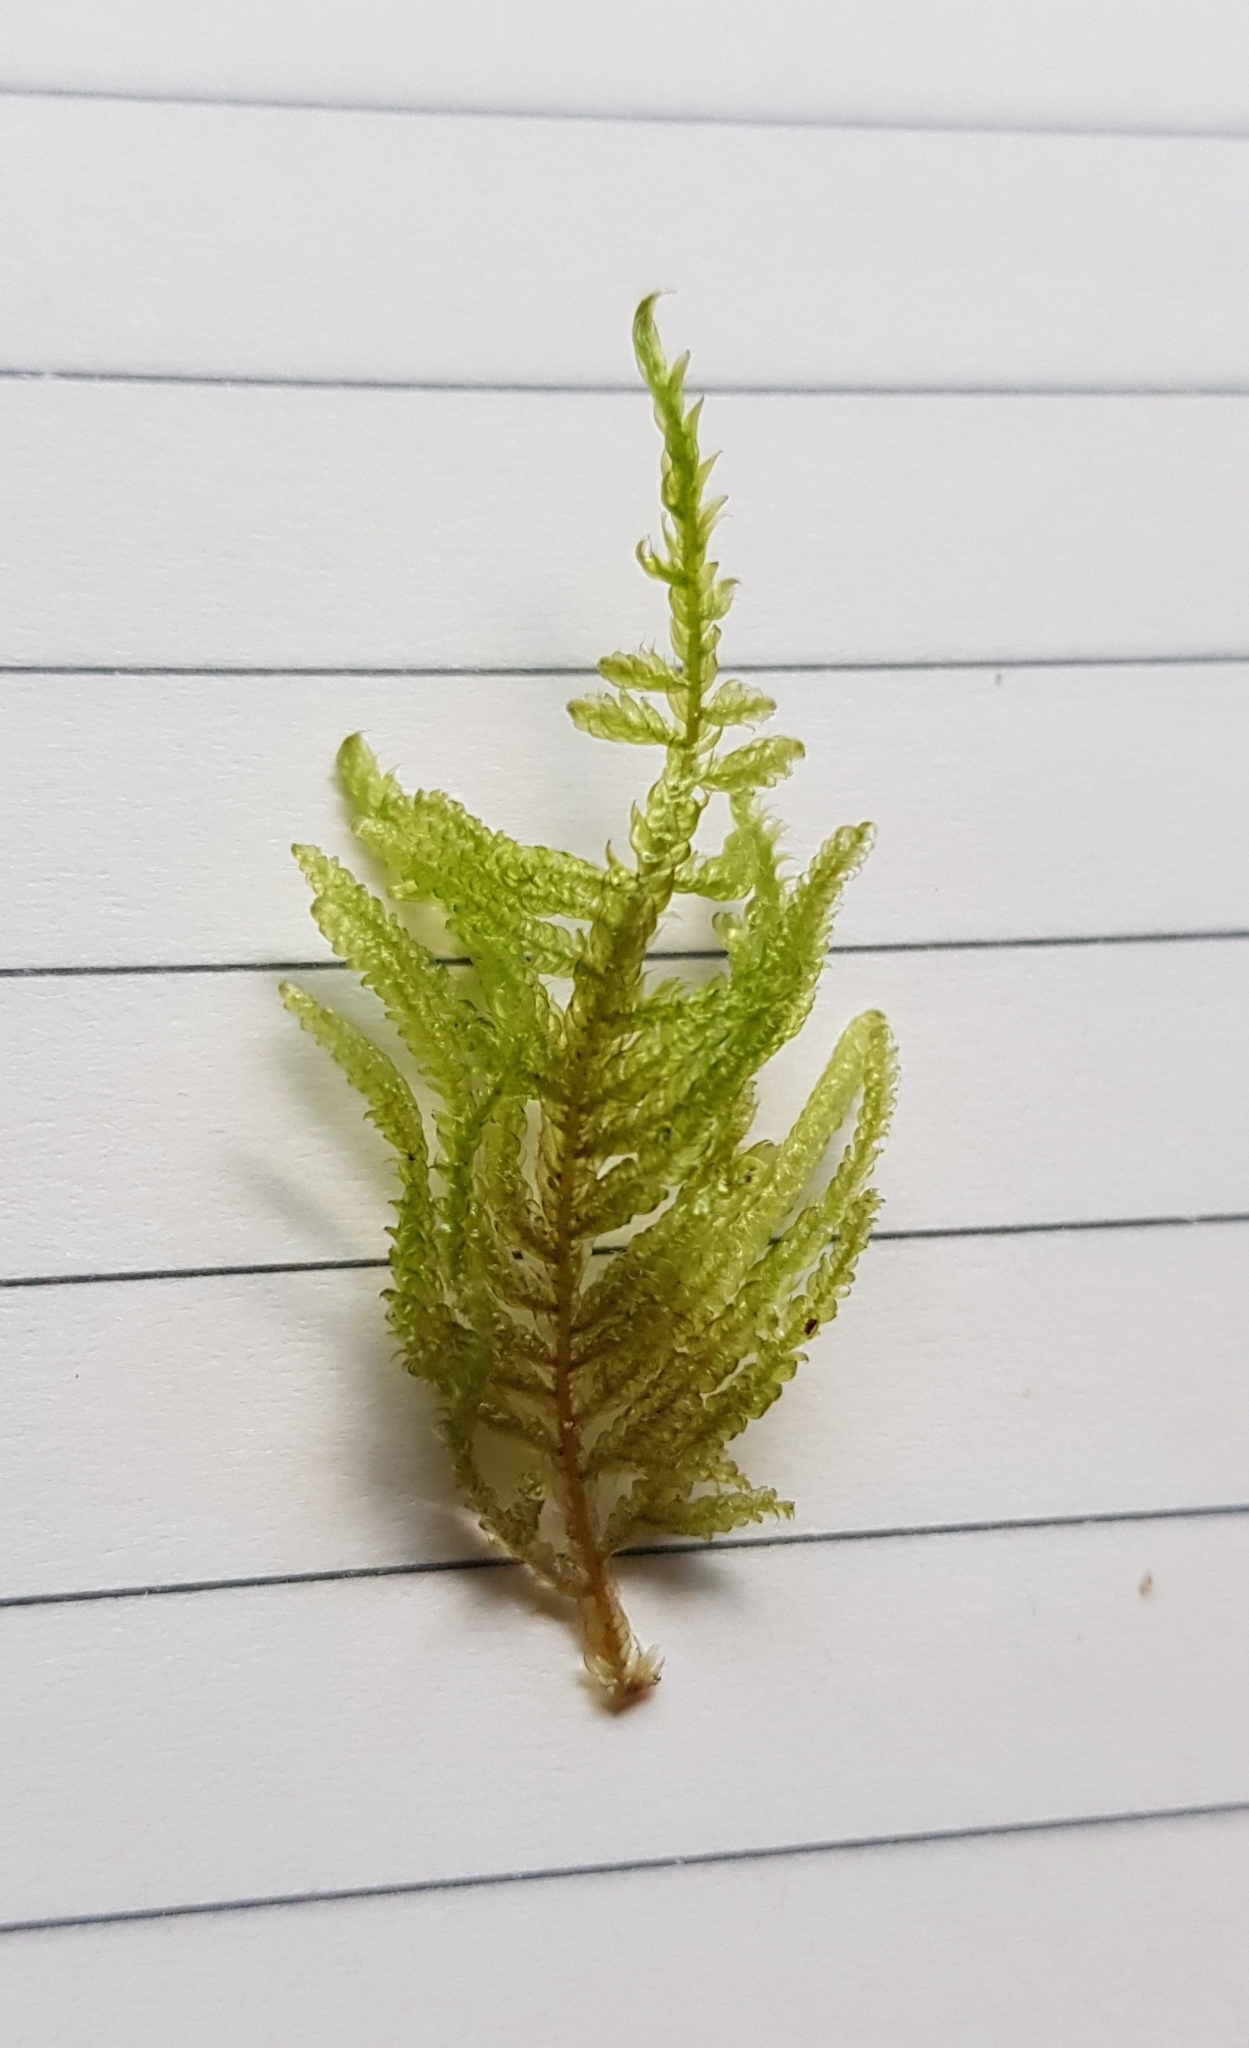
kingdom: Plantae
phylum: Bryophyta
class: Bryopsida
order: Hypnales
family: Hypnaceae
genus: Hypnum
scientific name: Hypnum jutlandicum
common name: Heath plait-moss
